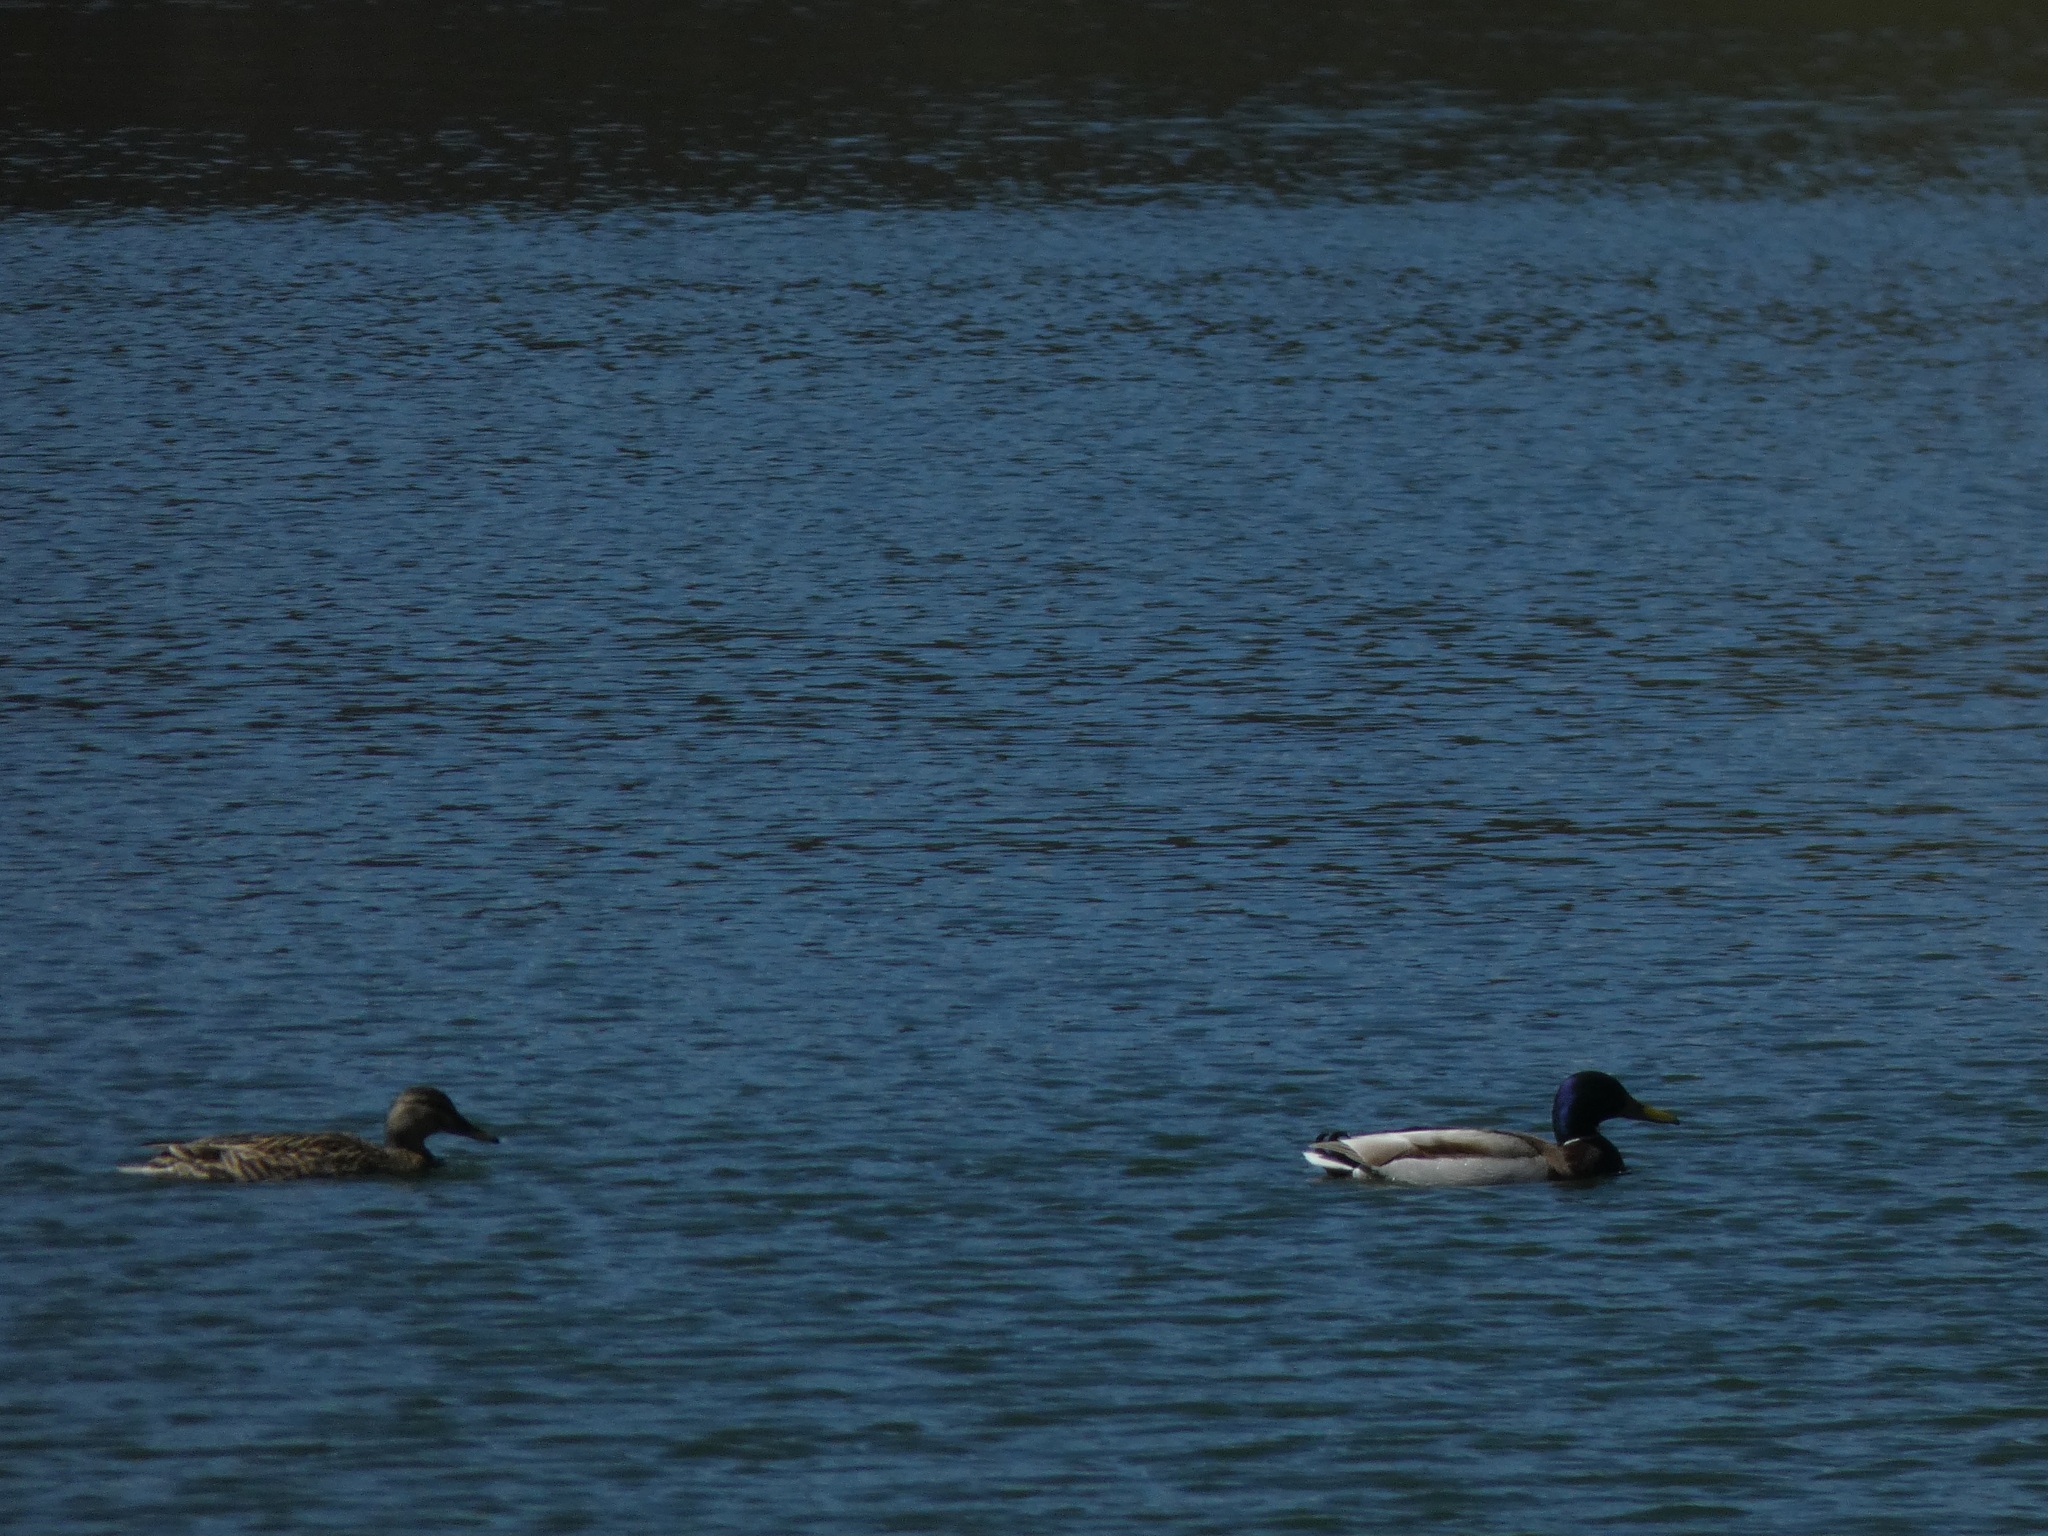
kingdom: Animalia
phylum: Chordata
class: Aves
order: Anseriformes
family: Anatidae
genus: Anas
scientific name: Anas platyrhynchos
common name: Mallard
